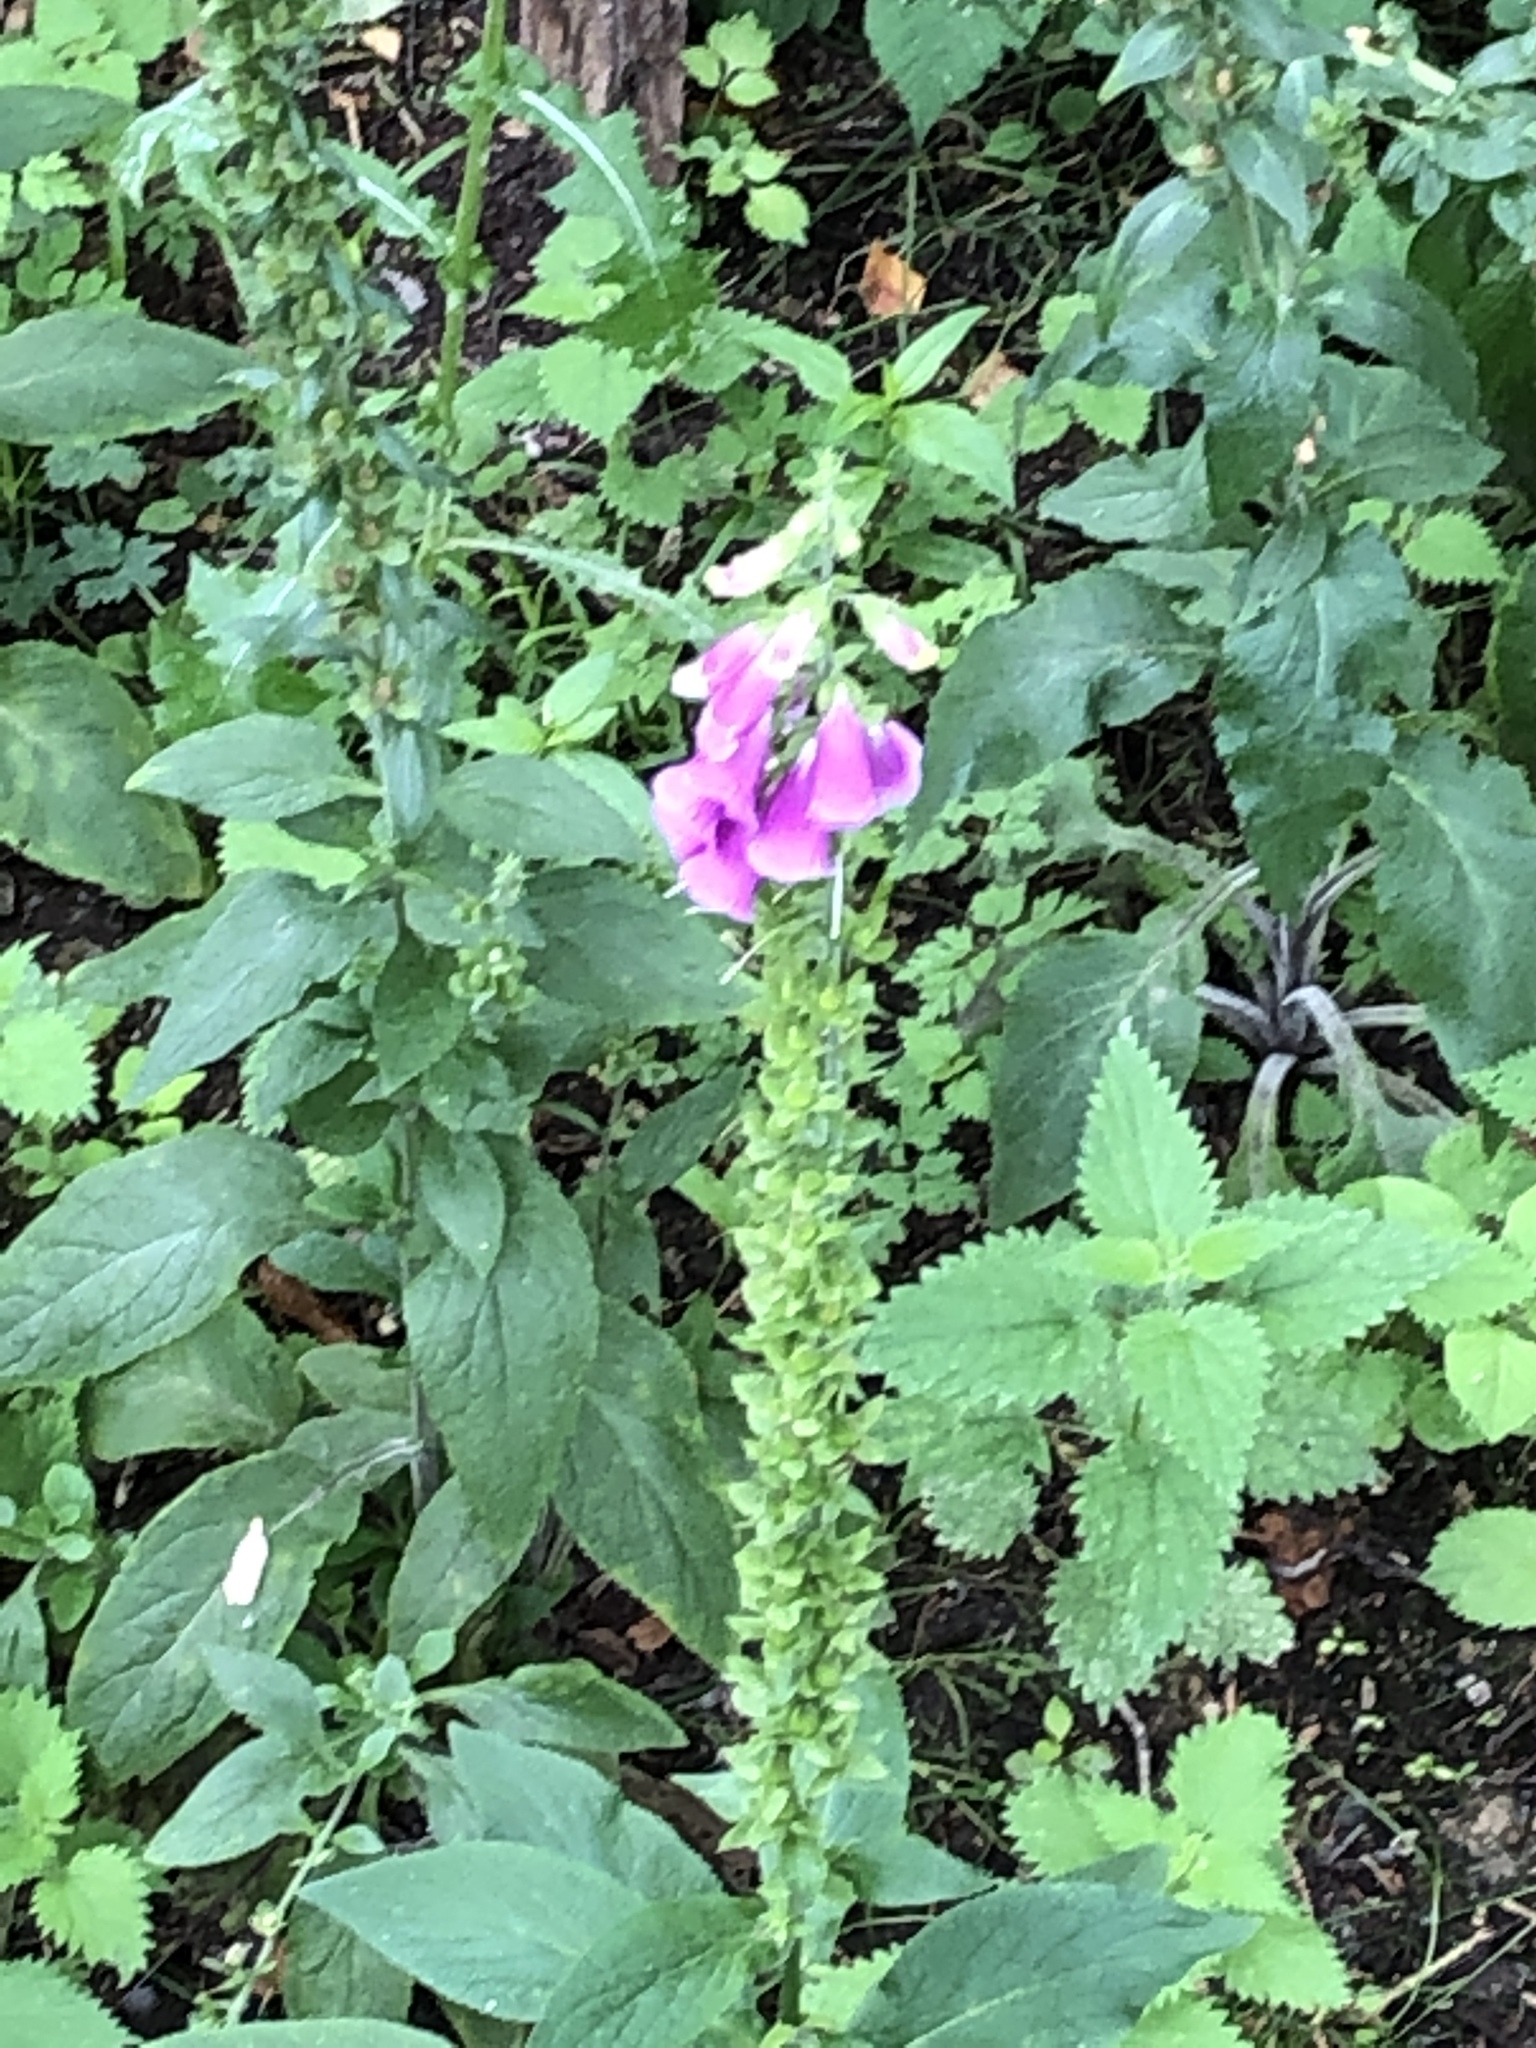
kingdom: Plantae
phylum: Tracheophyta
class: Magnoliopsida
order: Lamiales
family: Plantaginaceae
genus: Digitalis
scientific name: Digitalis purpurea
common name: Foxglove
